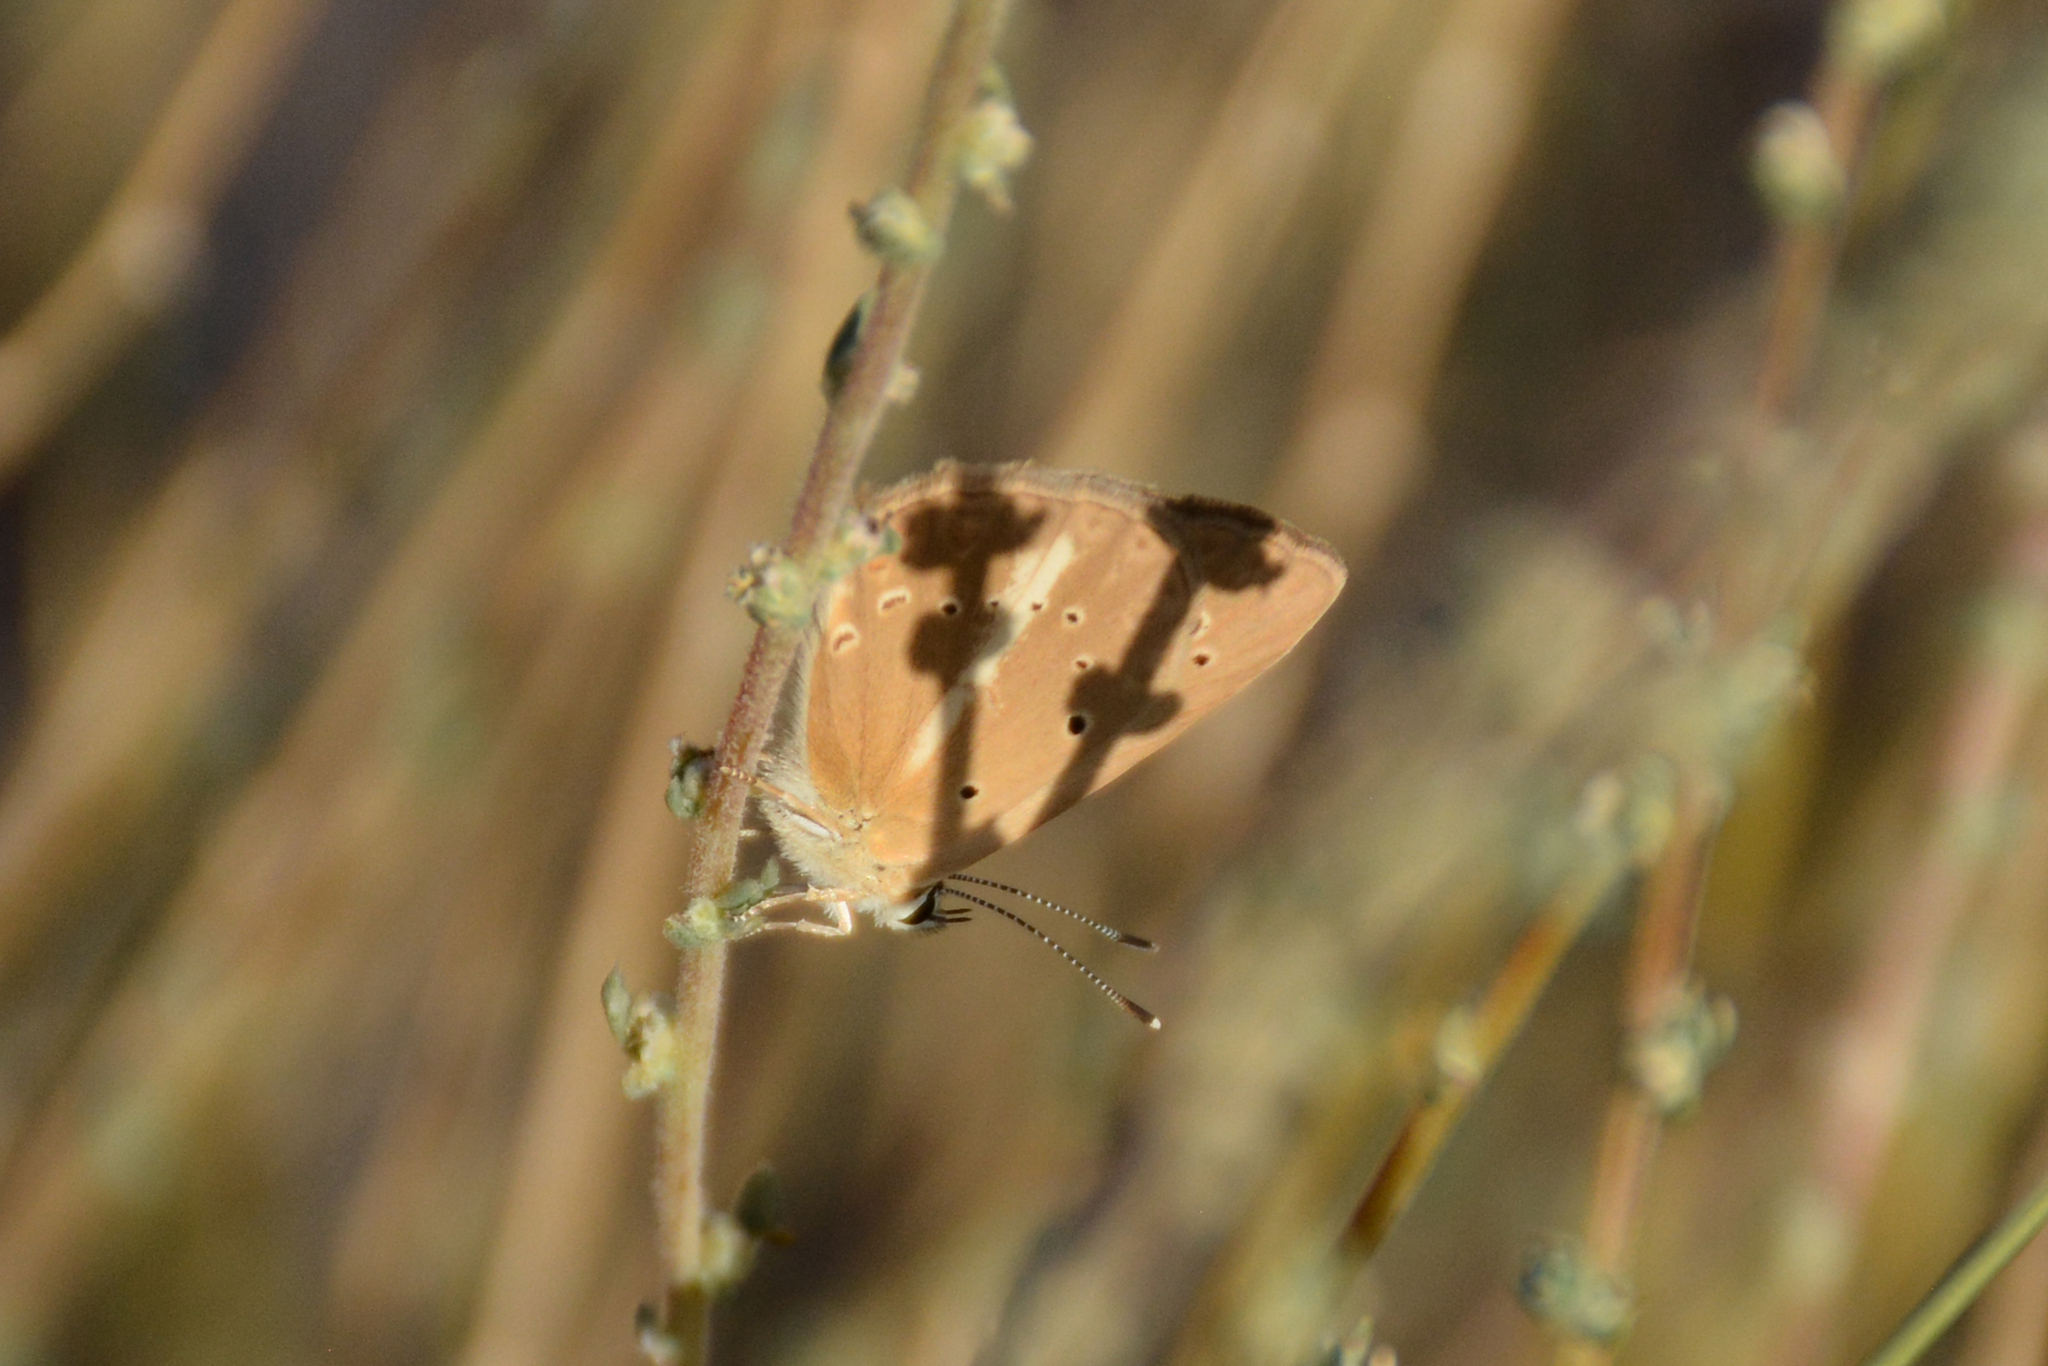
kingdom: Animalia
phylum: Arthropoda
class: Insecta
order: Lepidoptera
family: Lycaenidae
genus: Polyommatus
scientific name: Polyommatus demavendi
